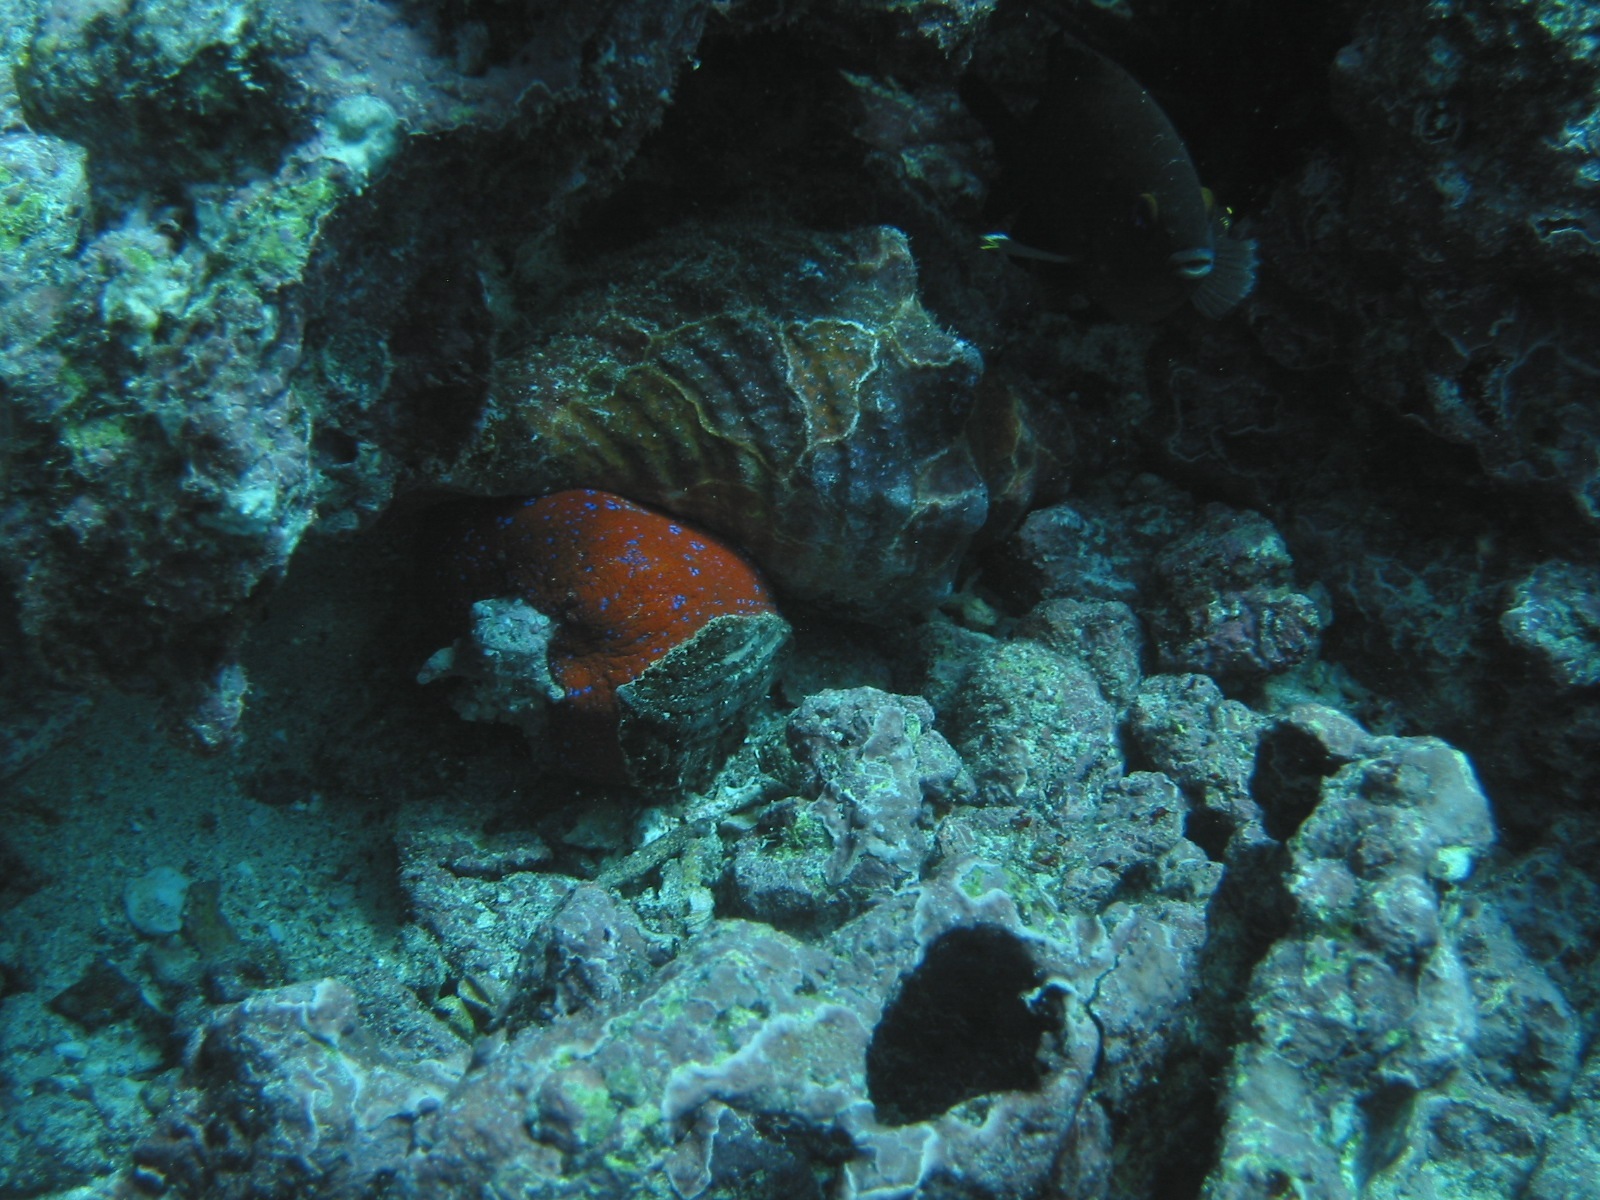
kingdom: Animalia
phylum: Mollusca
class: Gastropoda
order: Neogastropoda
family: Fasciolariidae
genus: Triplofusus
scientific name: Triplofusus princeps
